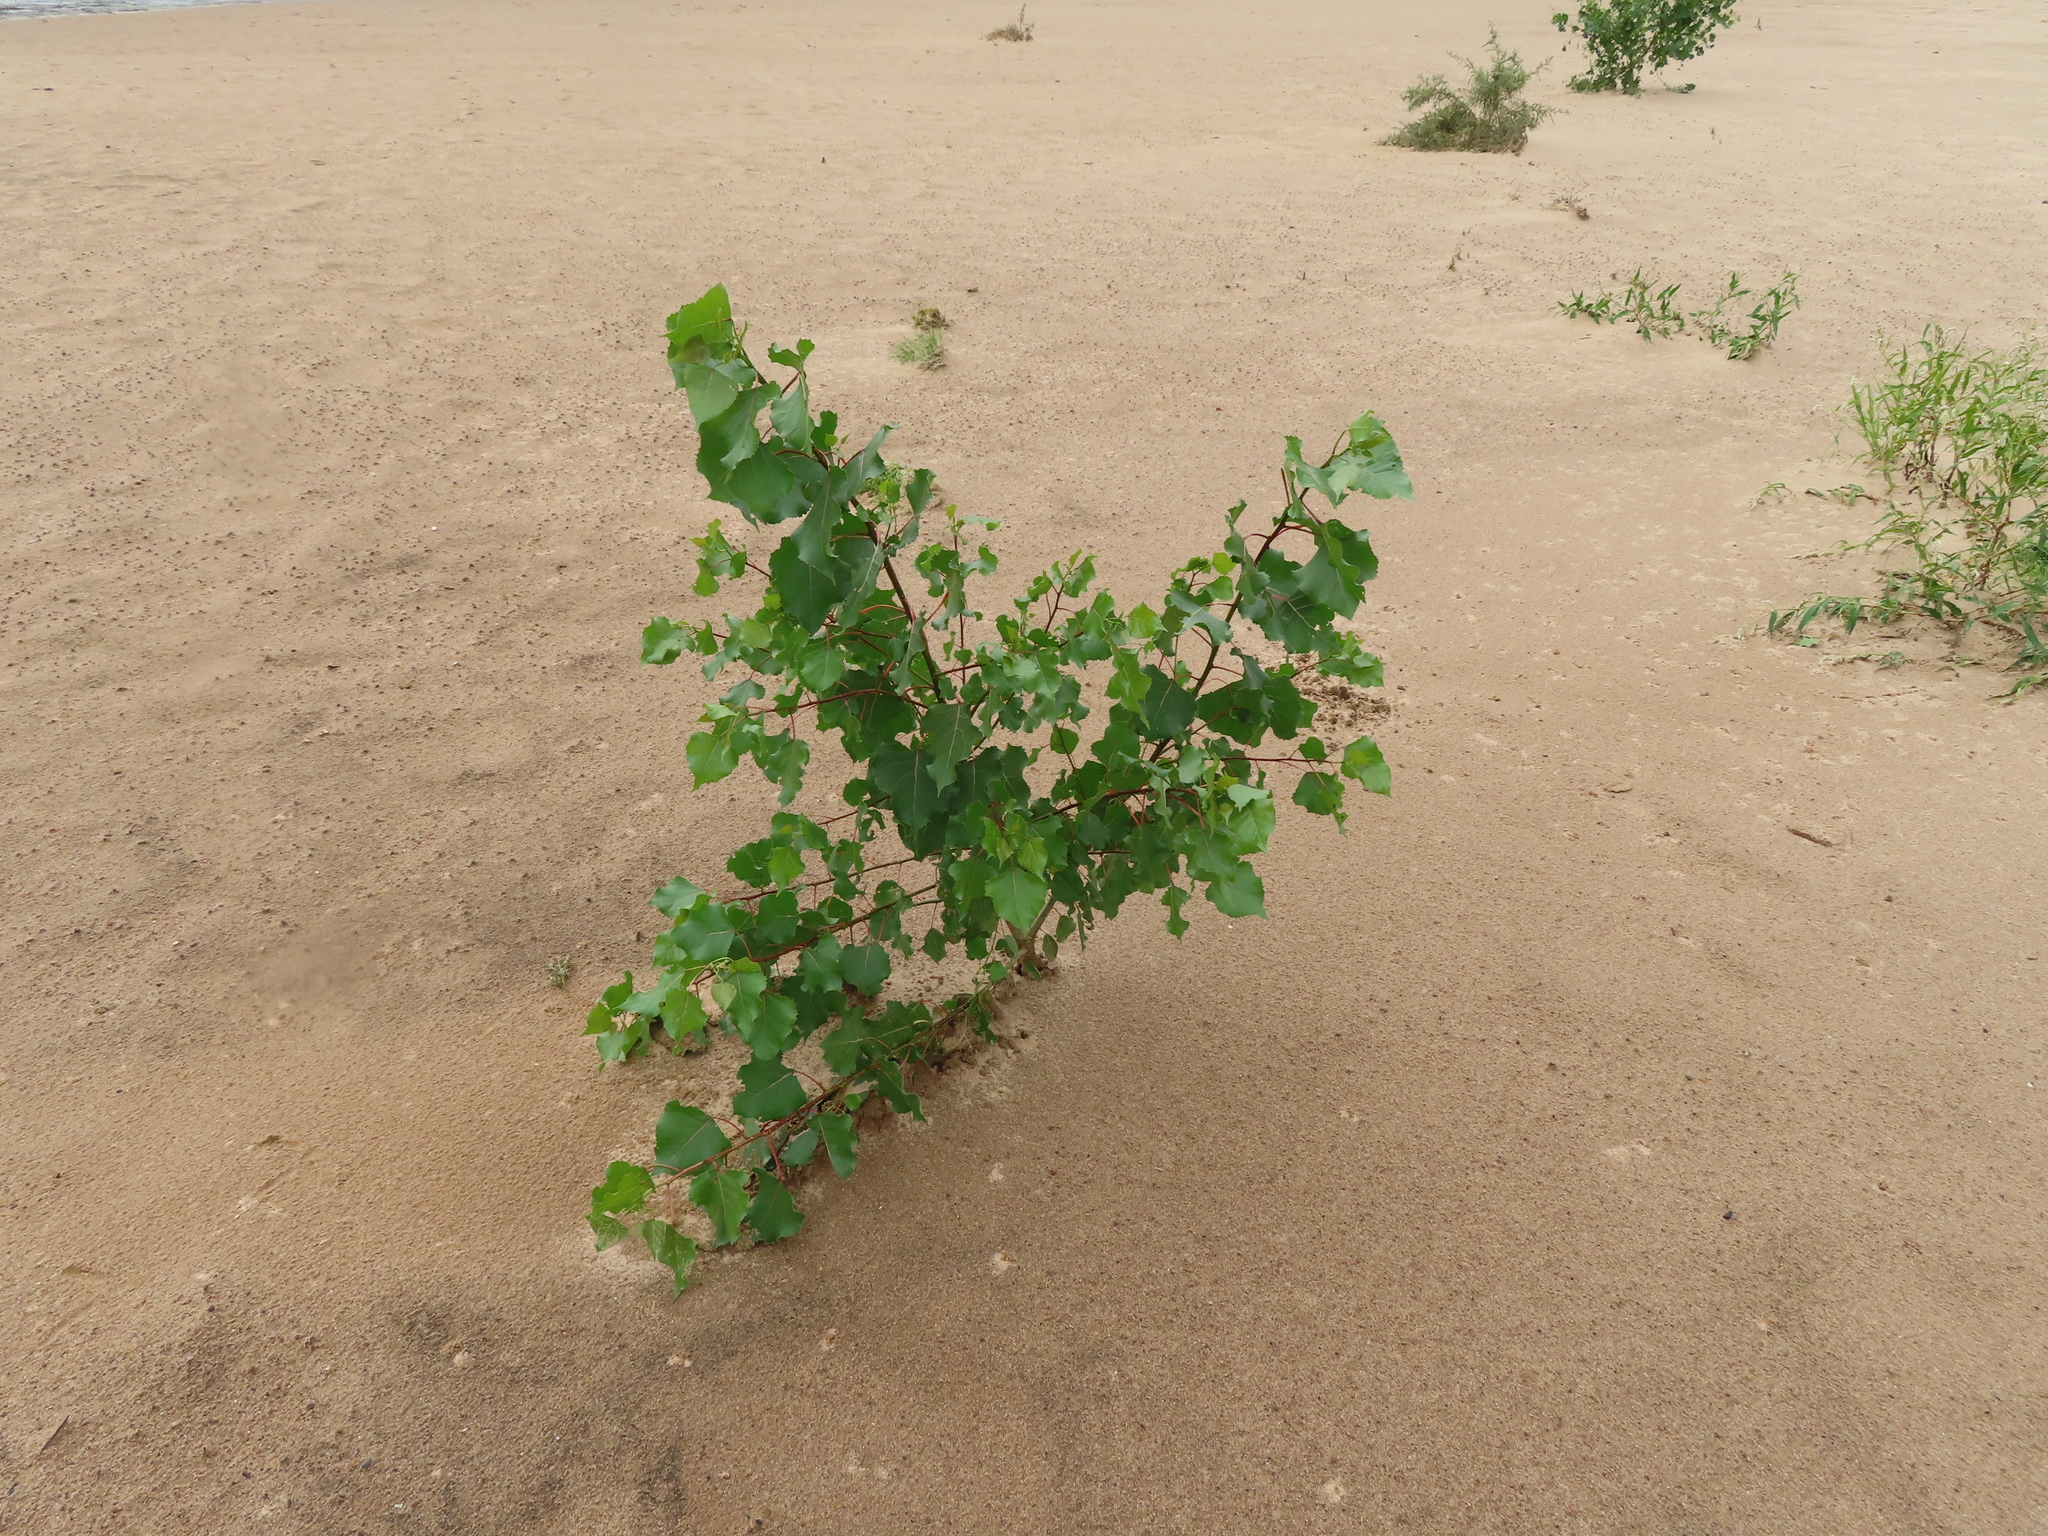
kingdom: Plantae
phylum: Tracheophyta
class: Magnoliopsida
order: Malpighiales
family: Salicaceae
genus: Populus
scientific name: Populus deltoides
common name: Eastern cottonwood
